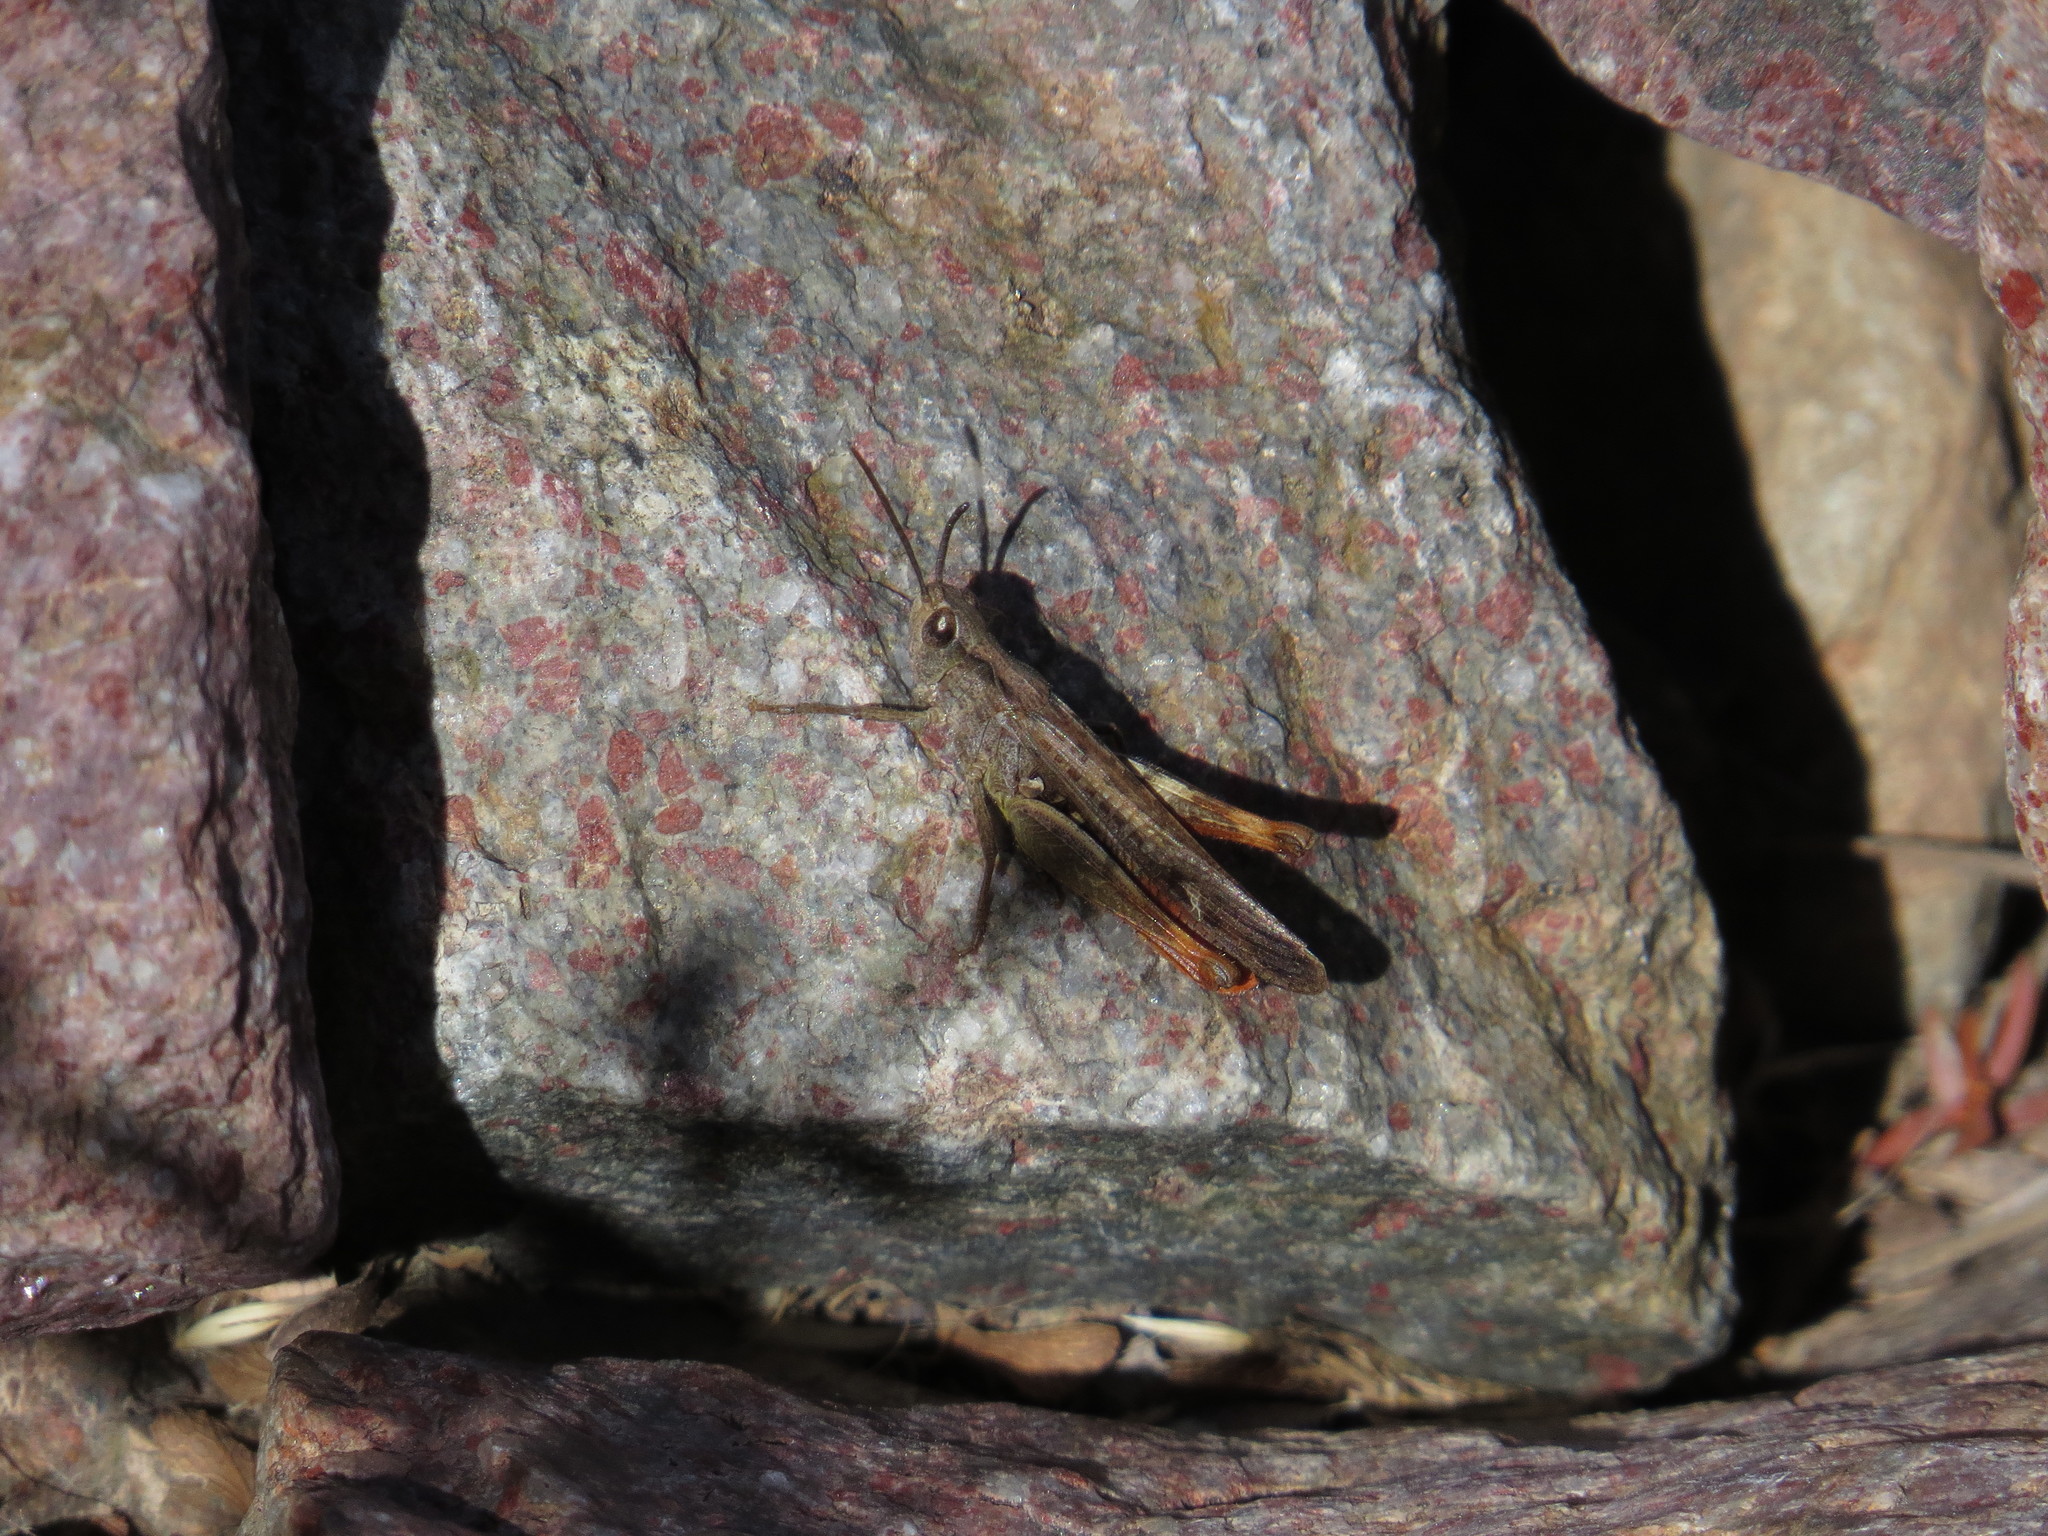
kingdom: Animalia
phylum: Arthropoda
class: Insecta
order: Orthoptera
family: Acrididae
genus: Chorthippus
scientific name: Chorthippus brunneus
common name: Field grasshopper
